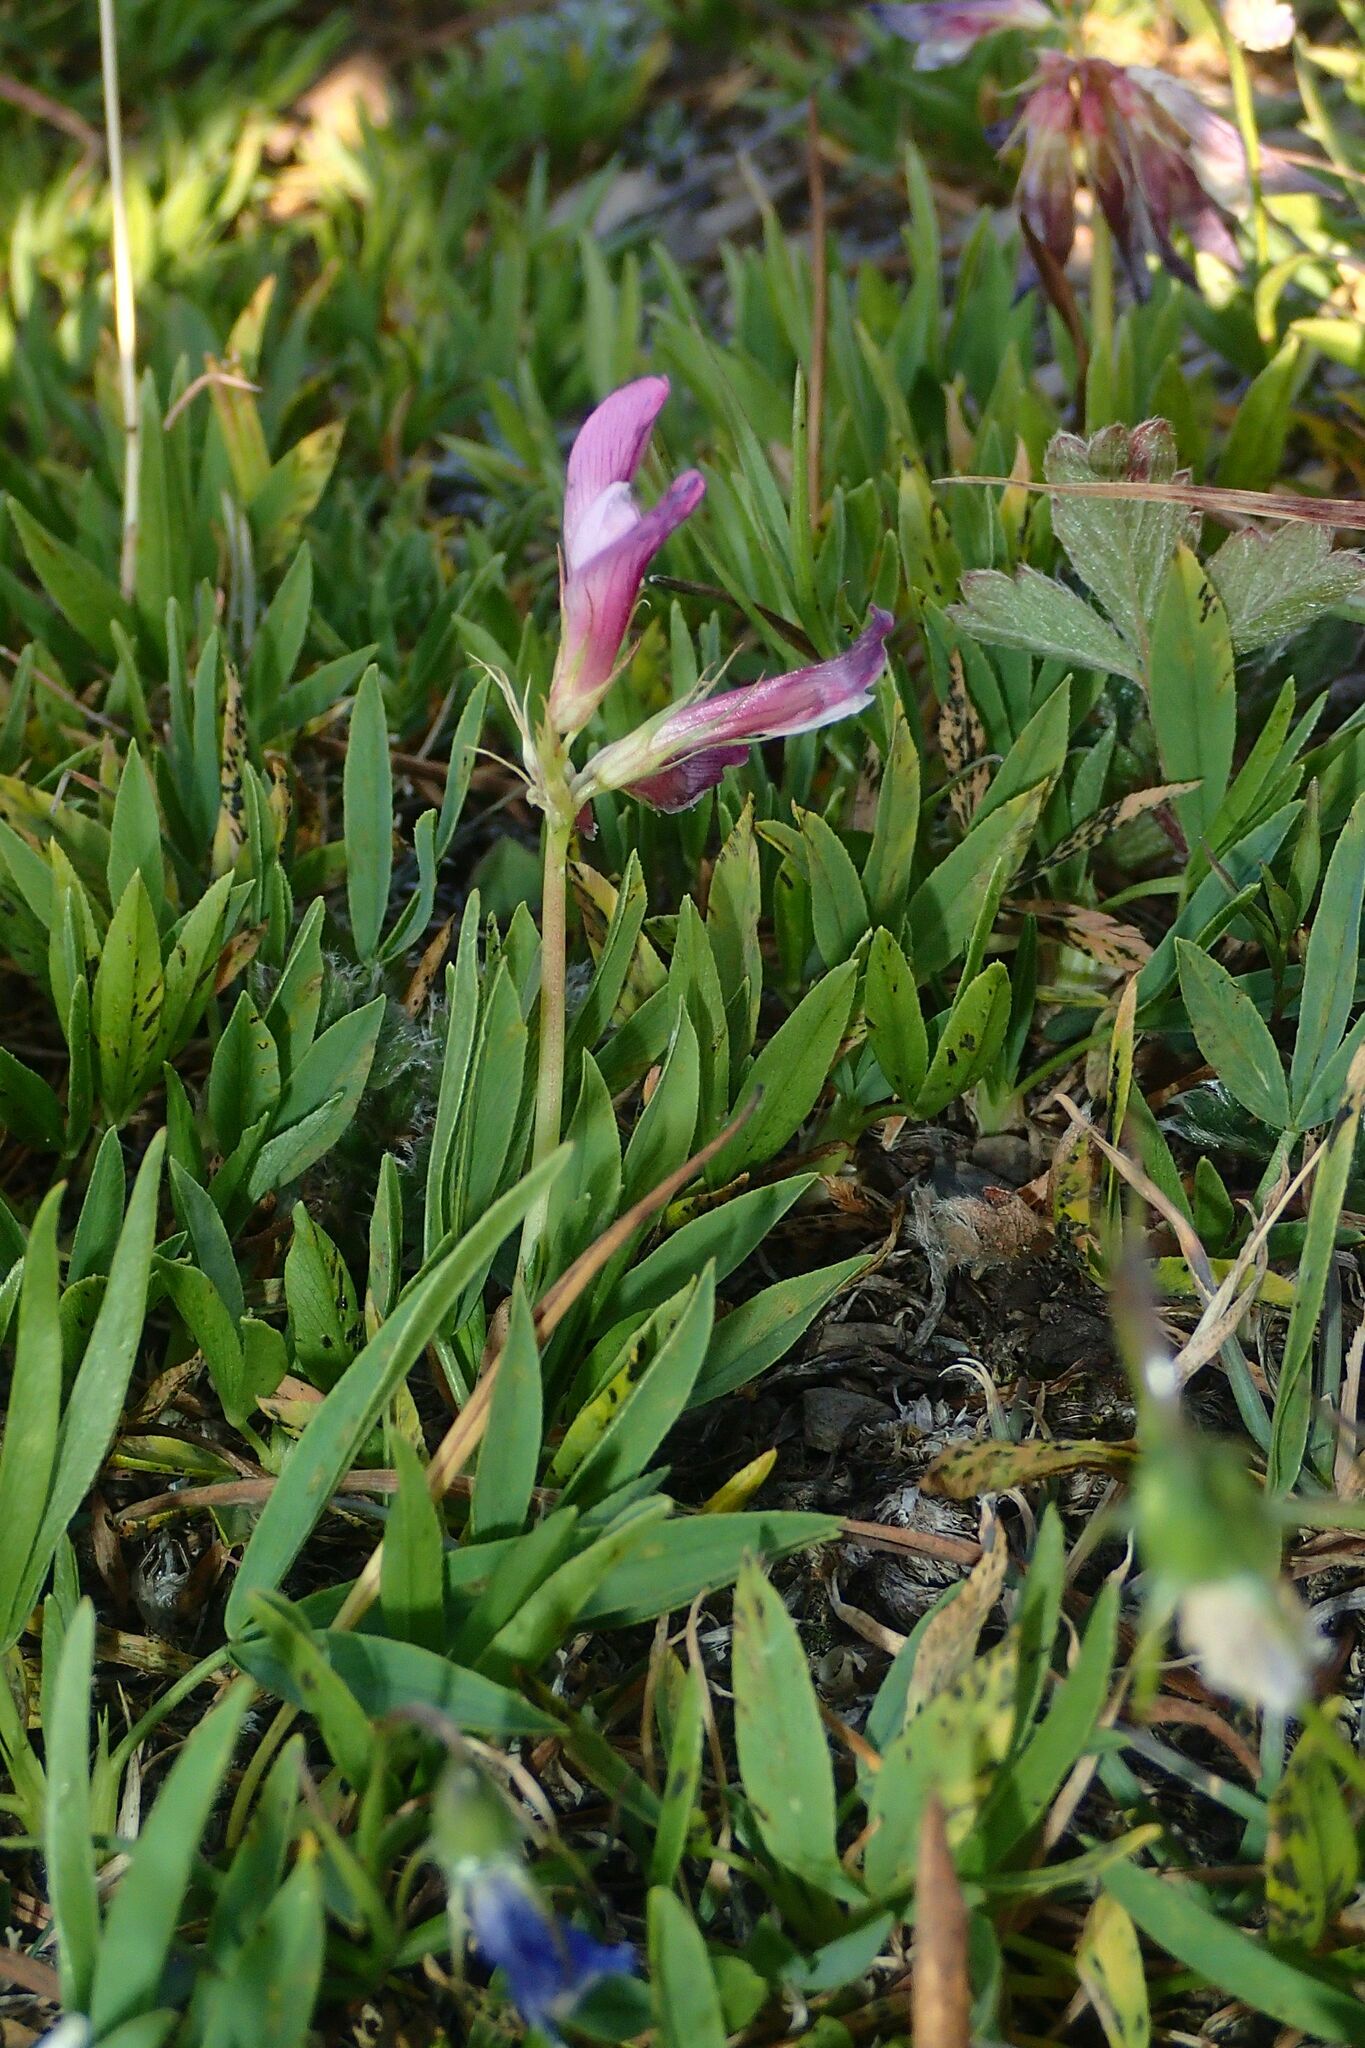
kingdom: Plantae
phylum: Tracheophyta
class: Magnoliopsida
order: Fabales
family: Fabaceae
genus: Trifolium
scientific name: Trifolium alpinum
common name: Alpine clover
